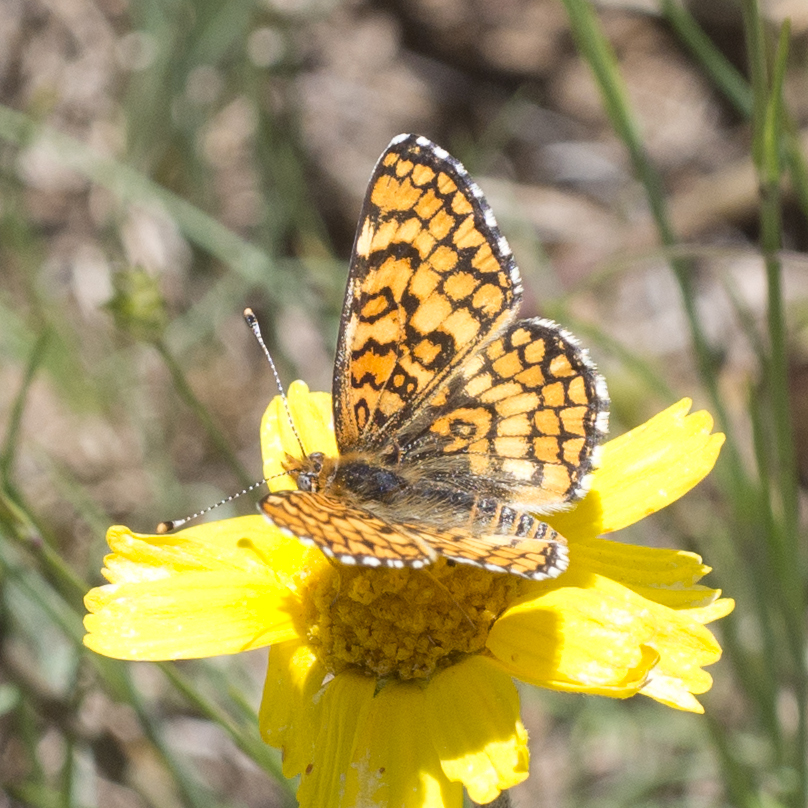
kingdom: Animalia
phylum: Arthropoda
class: Insecta
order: Lepidoptera
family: Nymphalidae
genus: Poladryas
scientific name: Poladryas minuta
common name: Dotted checkerspot
